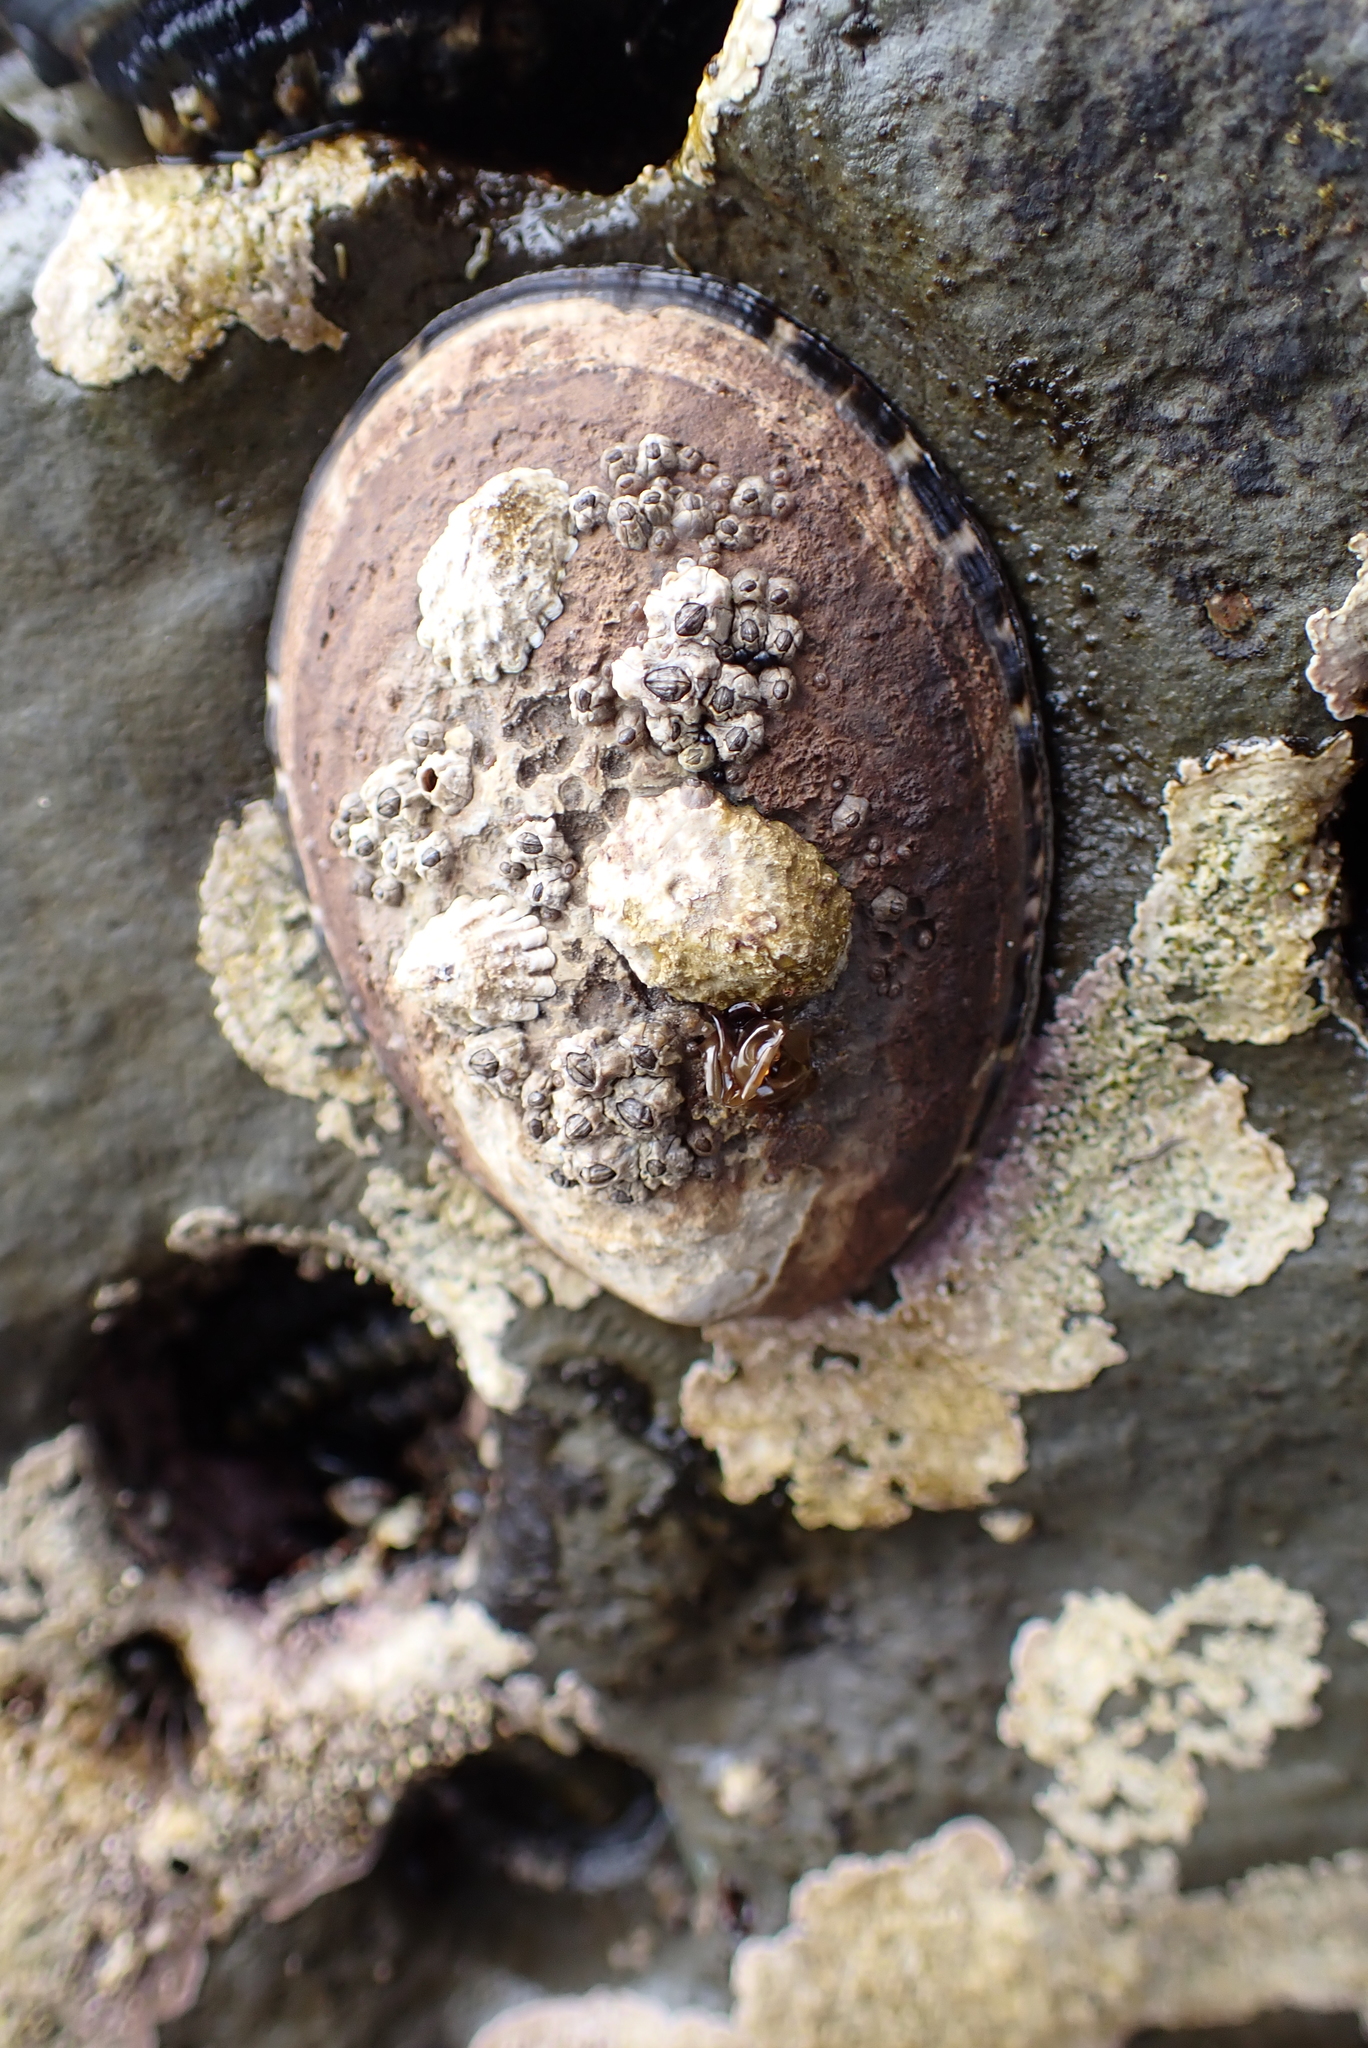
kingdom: Animalia
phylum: Mollusca
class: Gastropoda
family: Lottiidae
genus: Lottia
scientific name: Lottia gigantea
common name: Owl limpet
